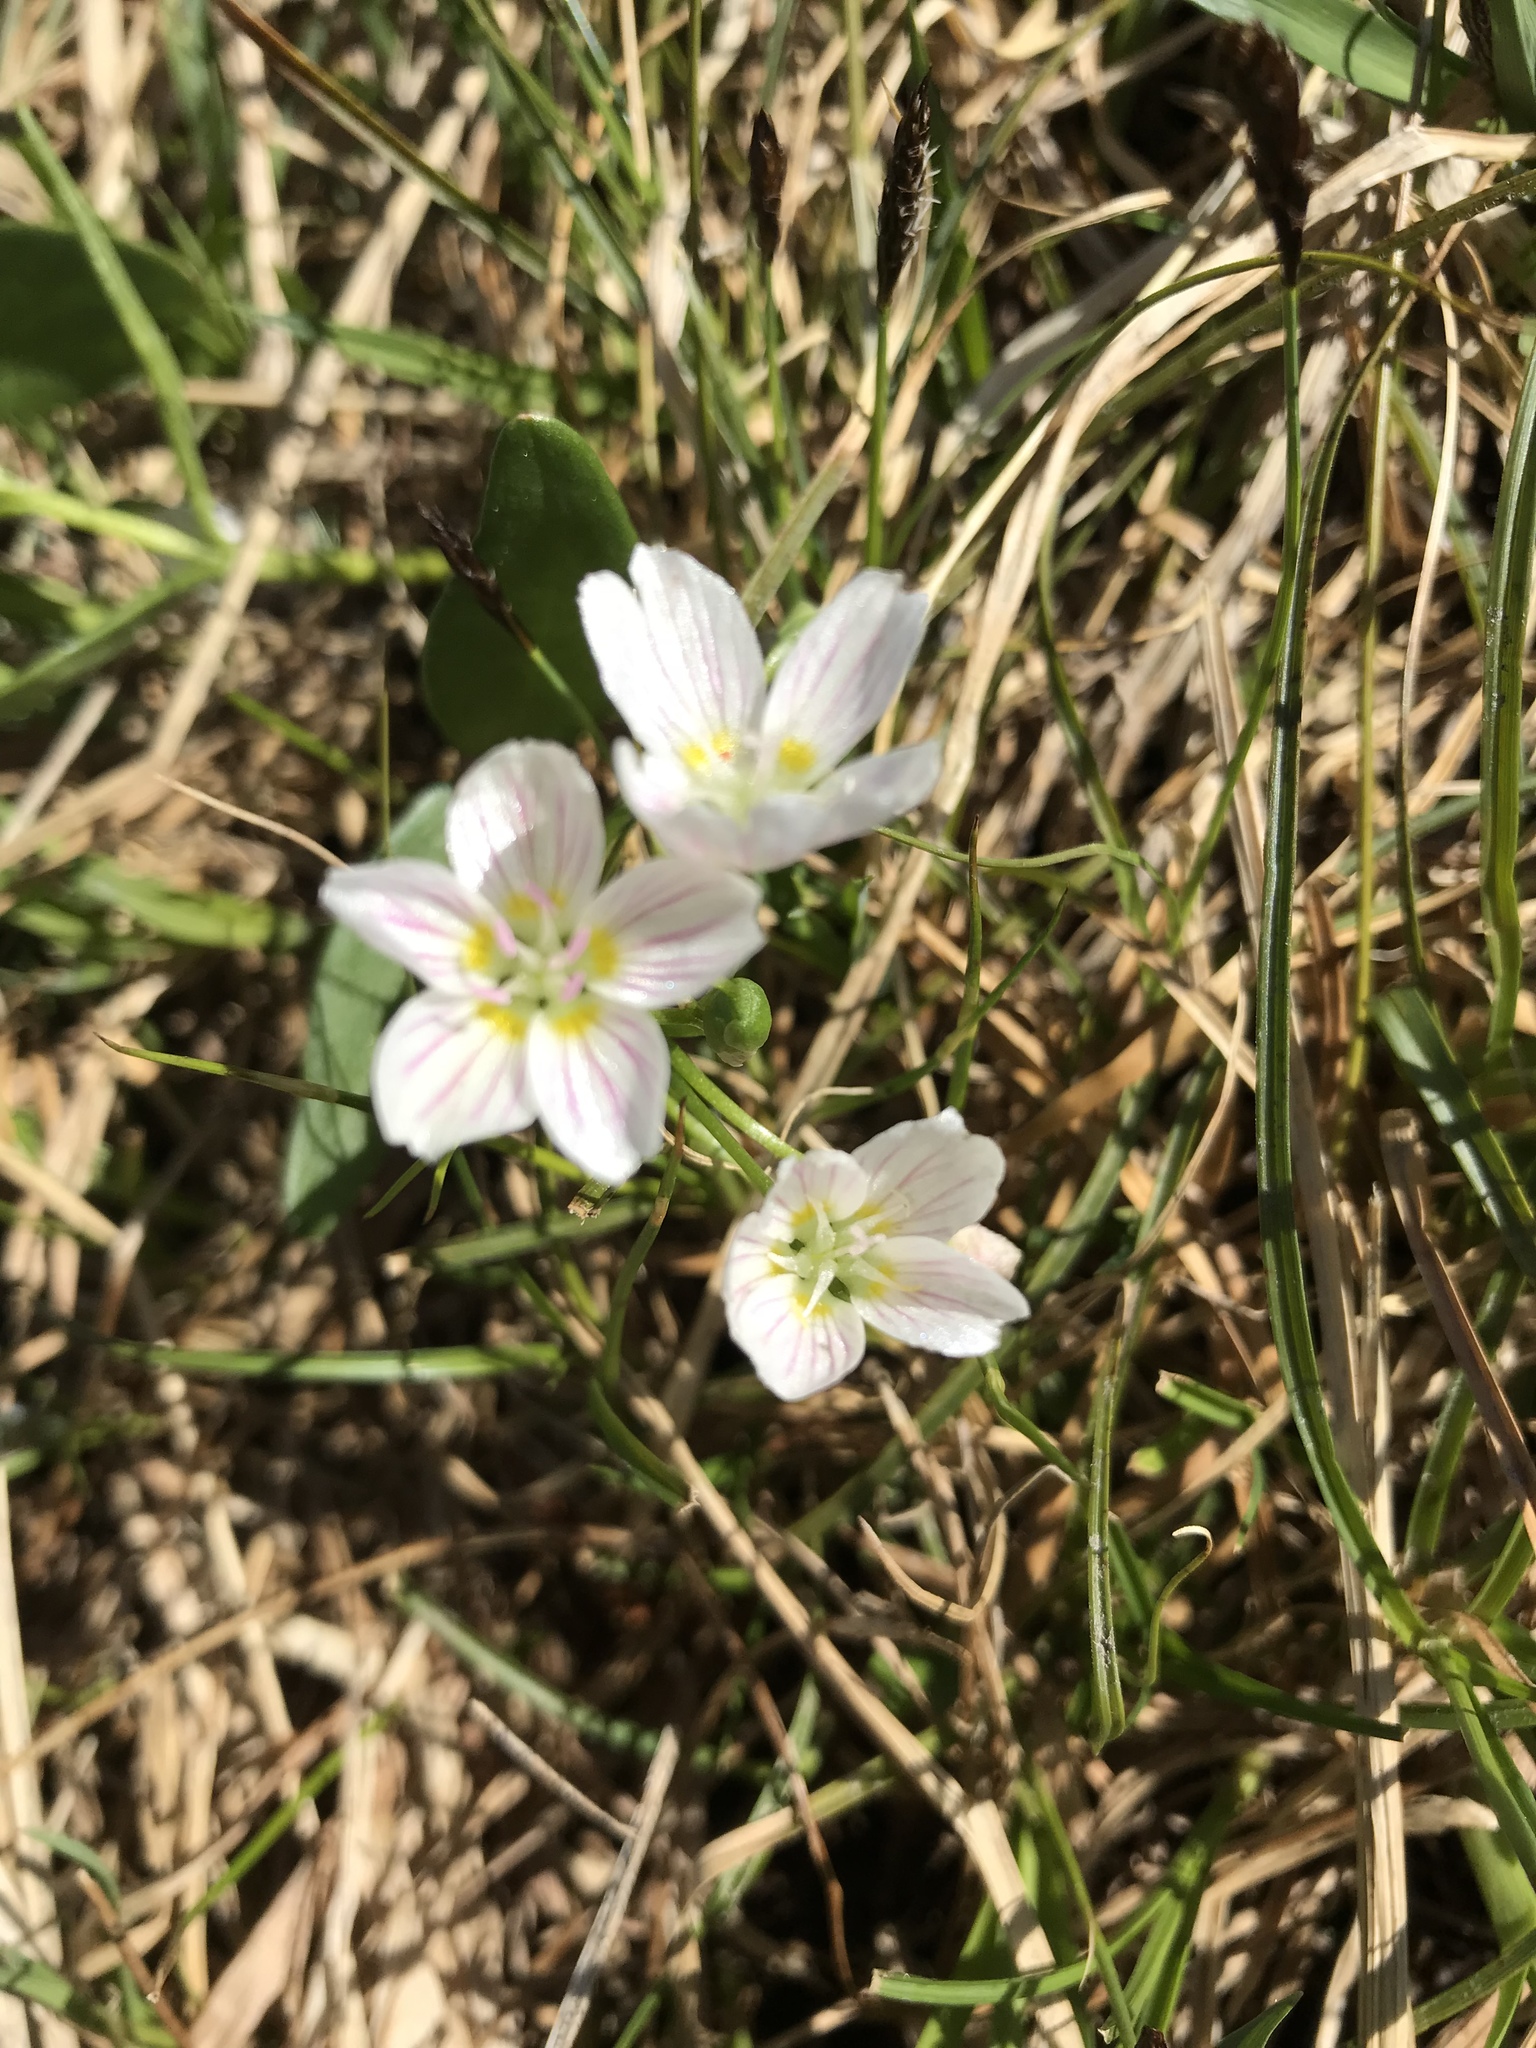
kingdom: Plantae
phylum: Tracheophyta
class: Magnoliopsida
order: Caryophyllales
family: Montiaceae
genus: Claytonia
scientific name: Claytonia lanceolata
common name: Western spring-beauty
